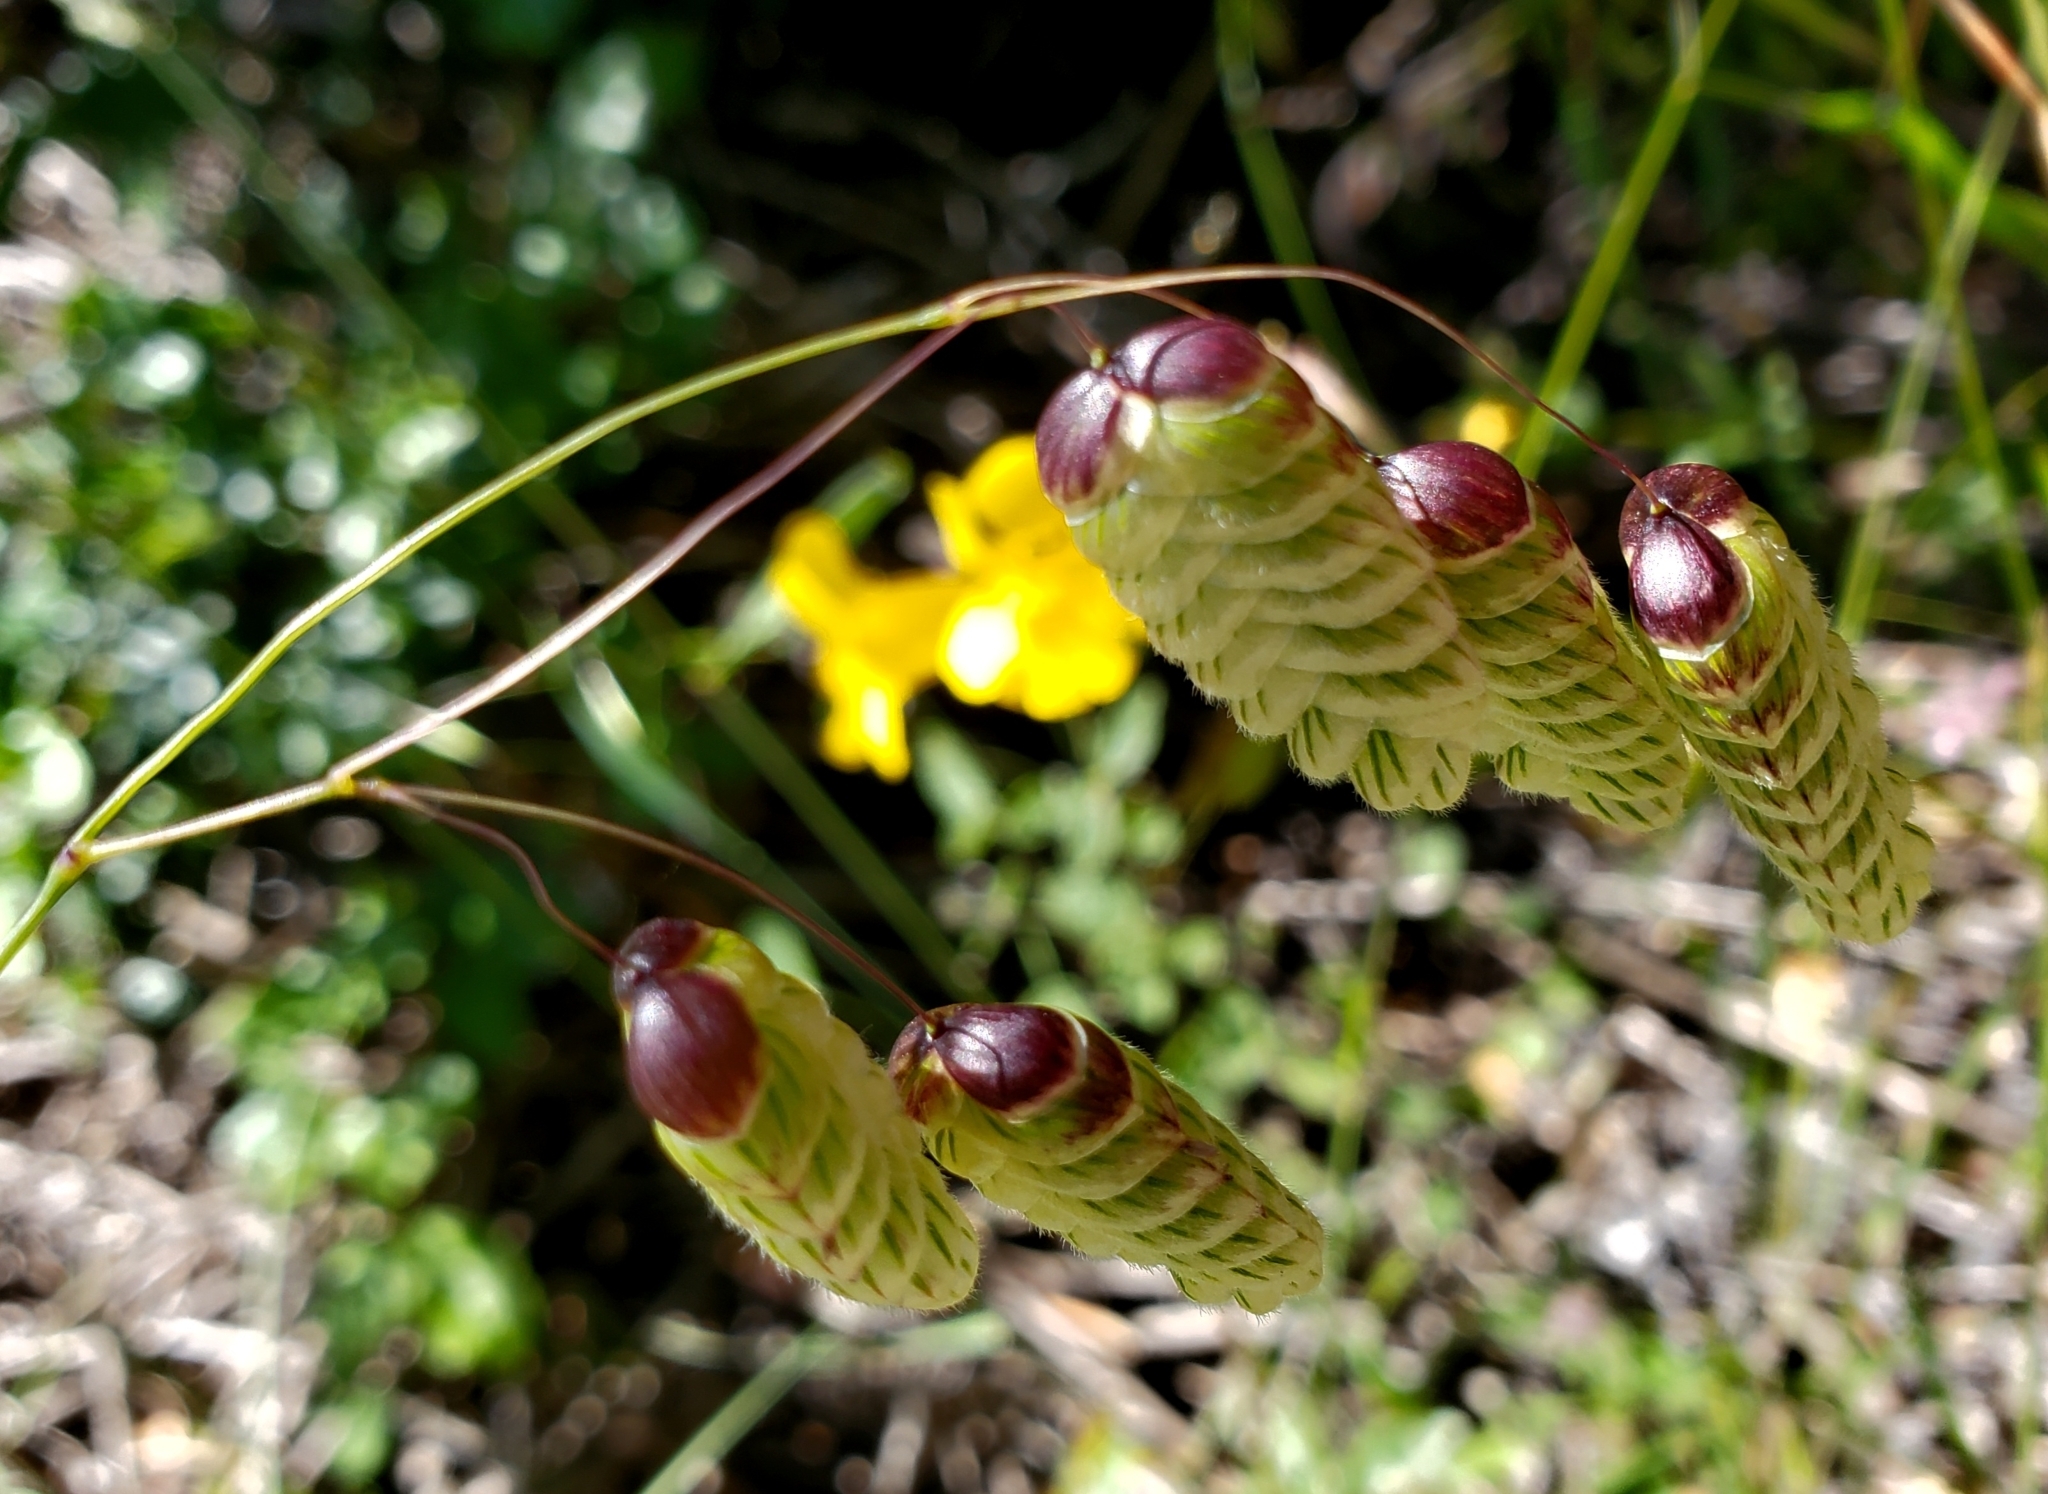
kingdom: Plantae
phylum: Tracheophyta
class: Liliopsida
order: Poales
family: Poaceae
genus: Briza
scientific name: Briza maxima
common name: Big quakinggrass
